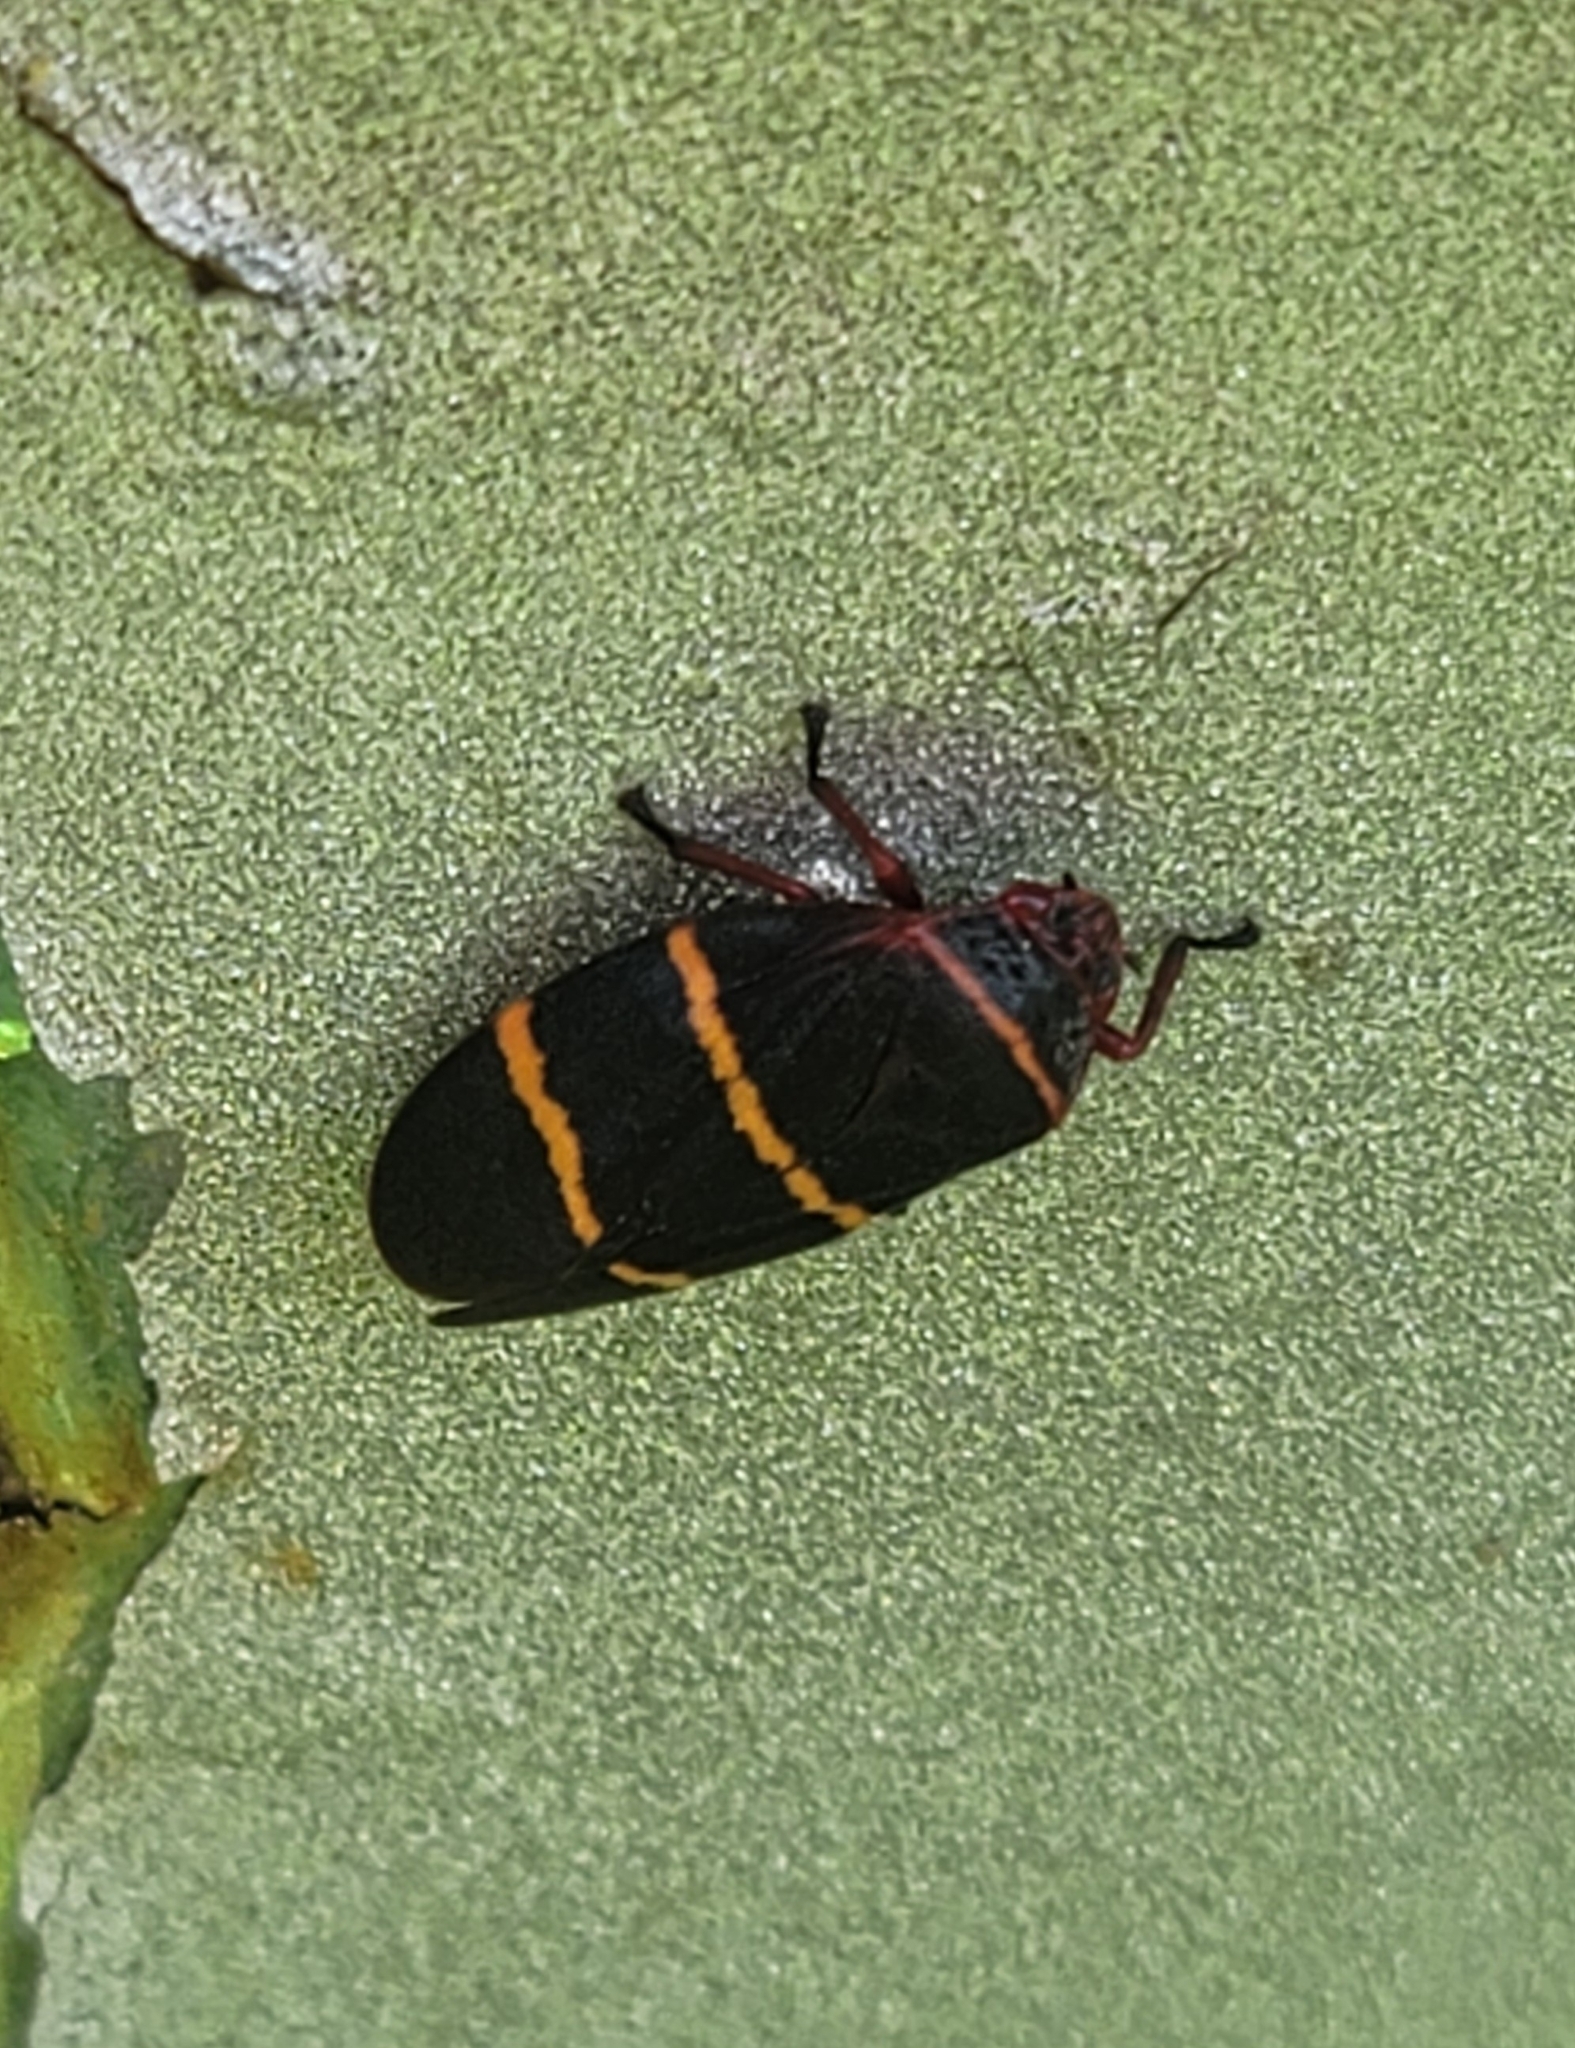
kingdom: Animalia
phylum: Arthropoda
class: Insecta
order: Hemiptera
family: Cercopidae
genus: Prosapia
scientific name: Prosapia bicincta
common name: Twolined spittlebug
